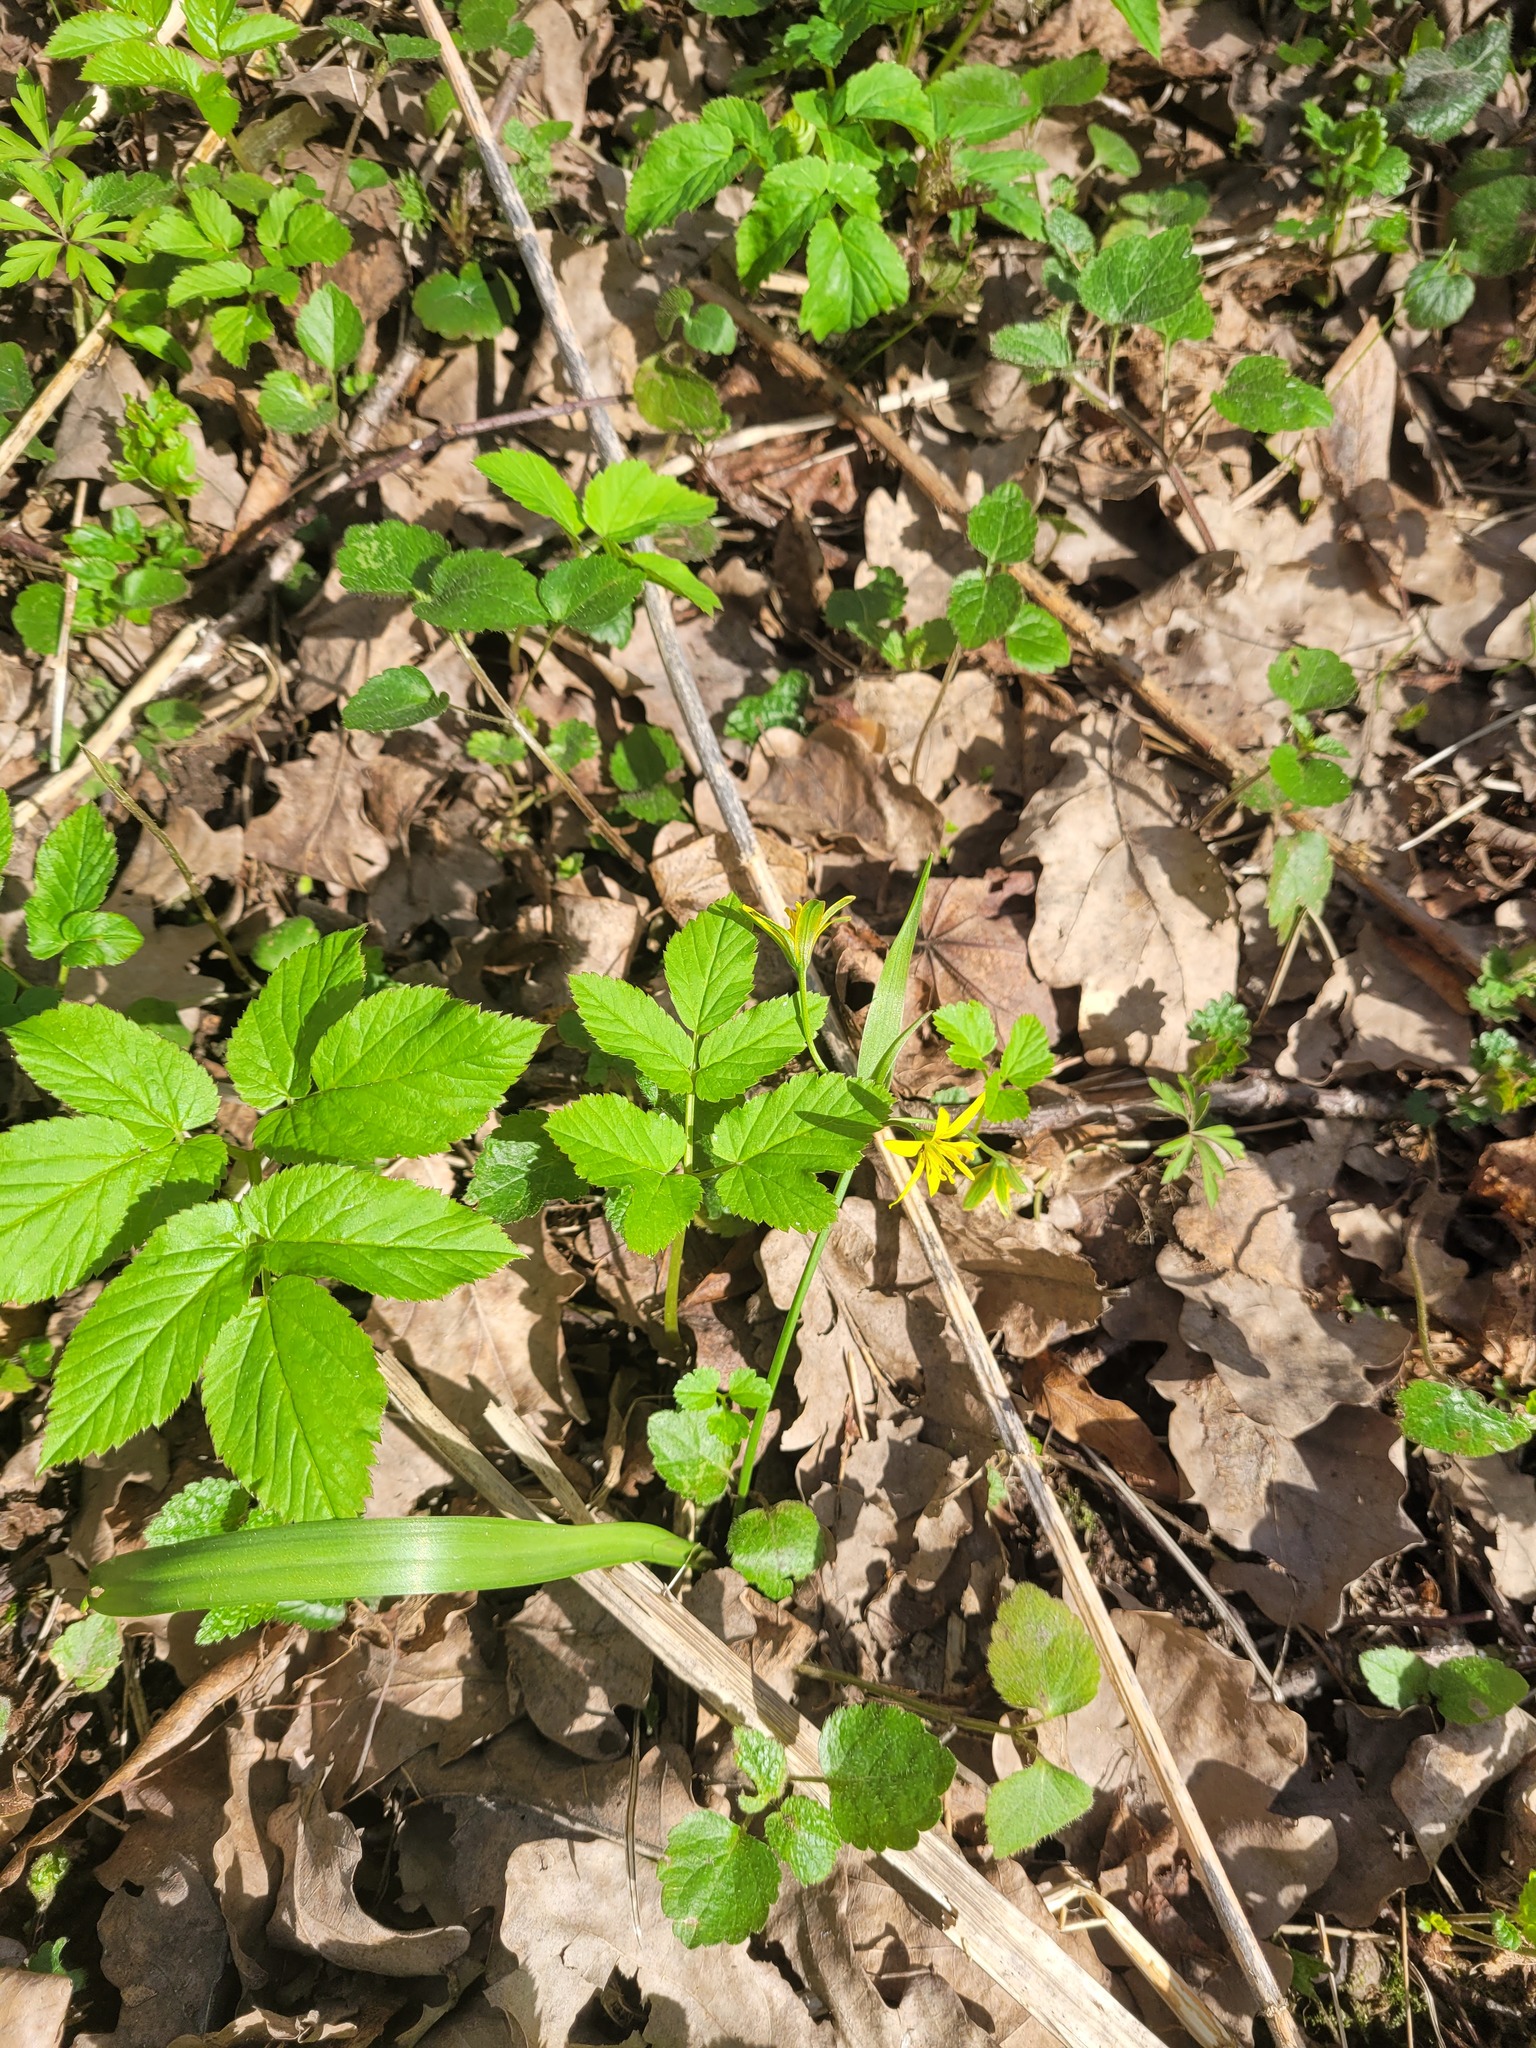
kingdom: Plantae
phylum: Tracheophyta
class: Liliopsida
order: Liliales
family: Liliaceae
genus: Gagea
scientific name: Gagea lutea
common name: Yellow star-of-bethlehem
